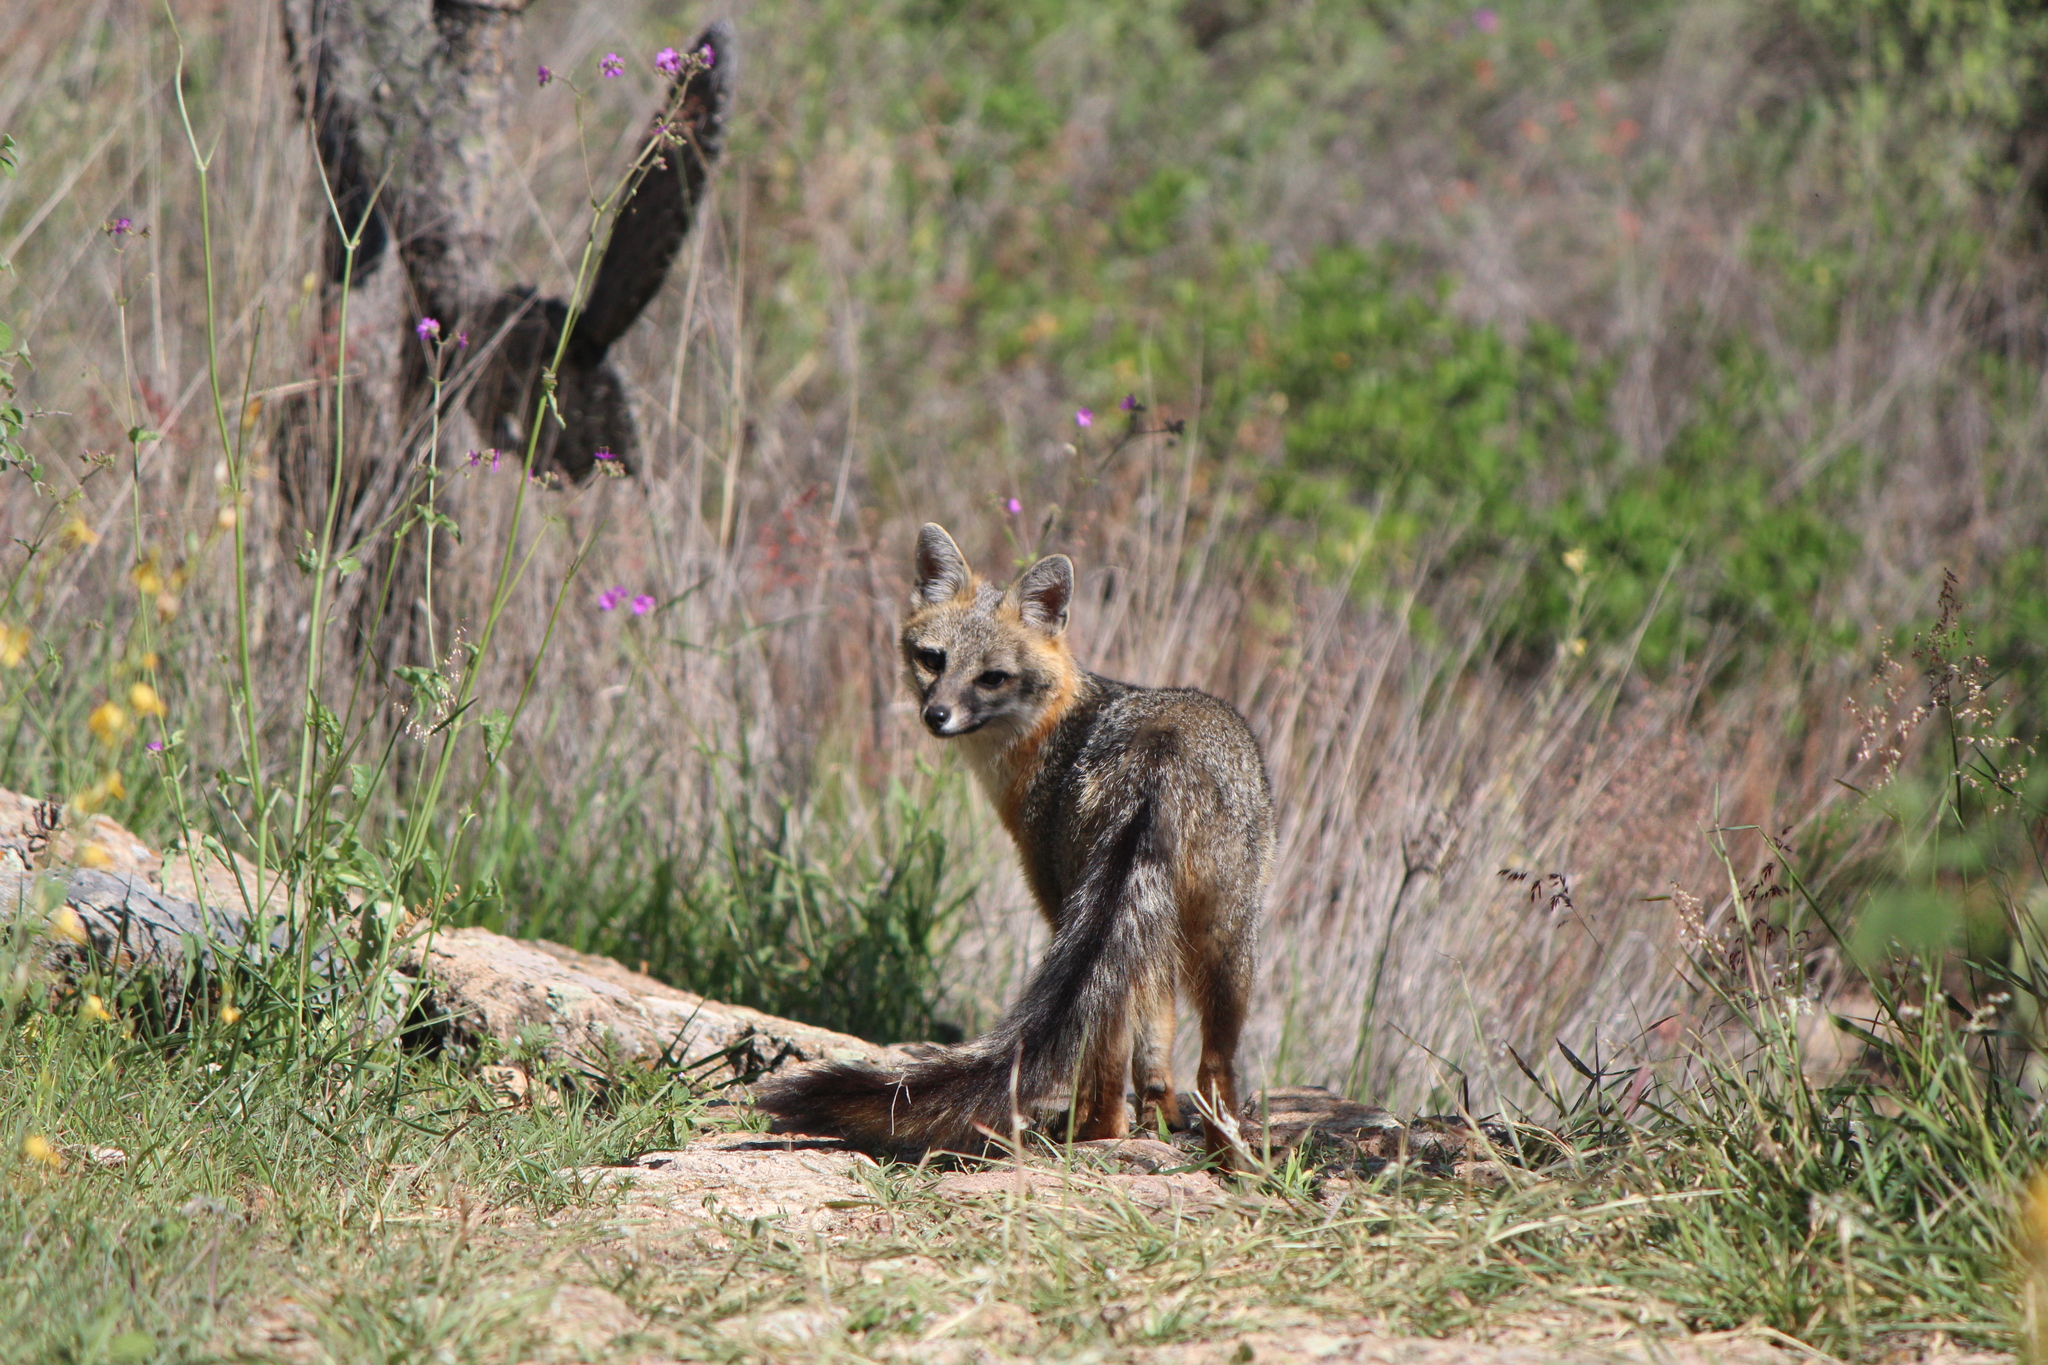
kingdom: Animalia
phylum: Chordata
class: Mammalia
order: Carnivora
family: Canidae
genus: Urocyon
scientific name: Urocyon cinereoargenteus
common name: Gray fox
